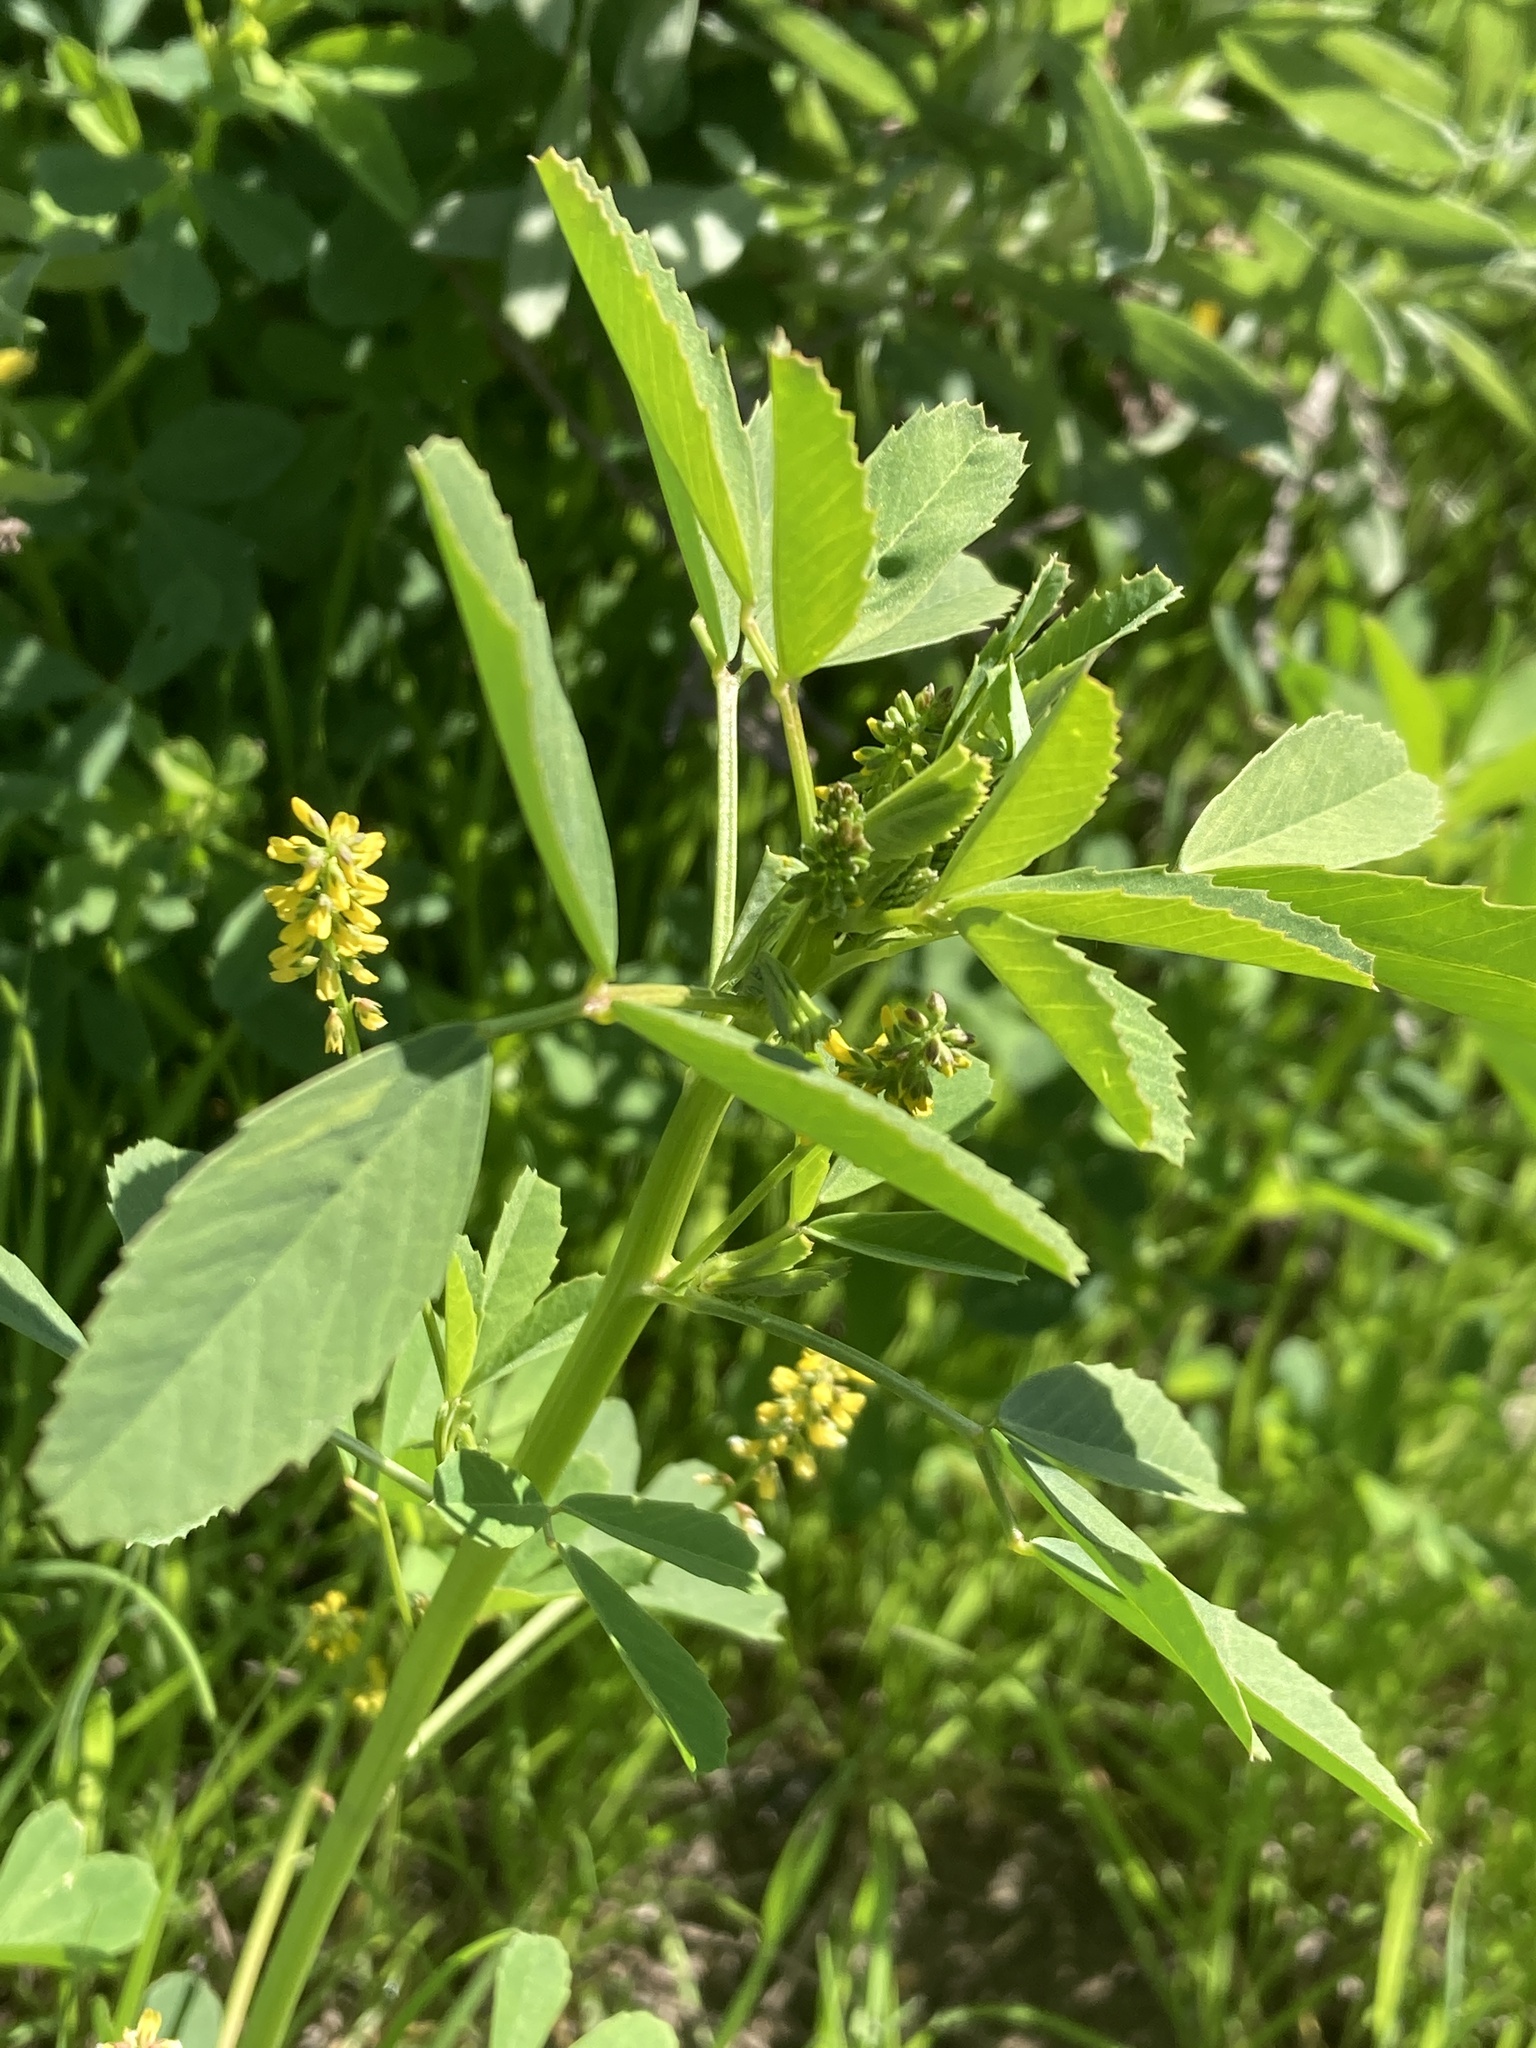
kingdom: Plantae
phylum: Tracheophyta
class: Magnoliopsida
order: Fabales
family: Fabaceae
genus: Melilotus
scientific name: Melilotus indicus
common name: Small melilot
